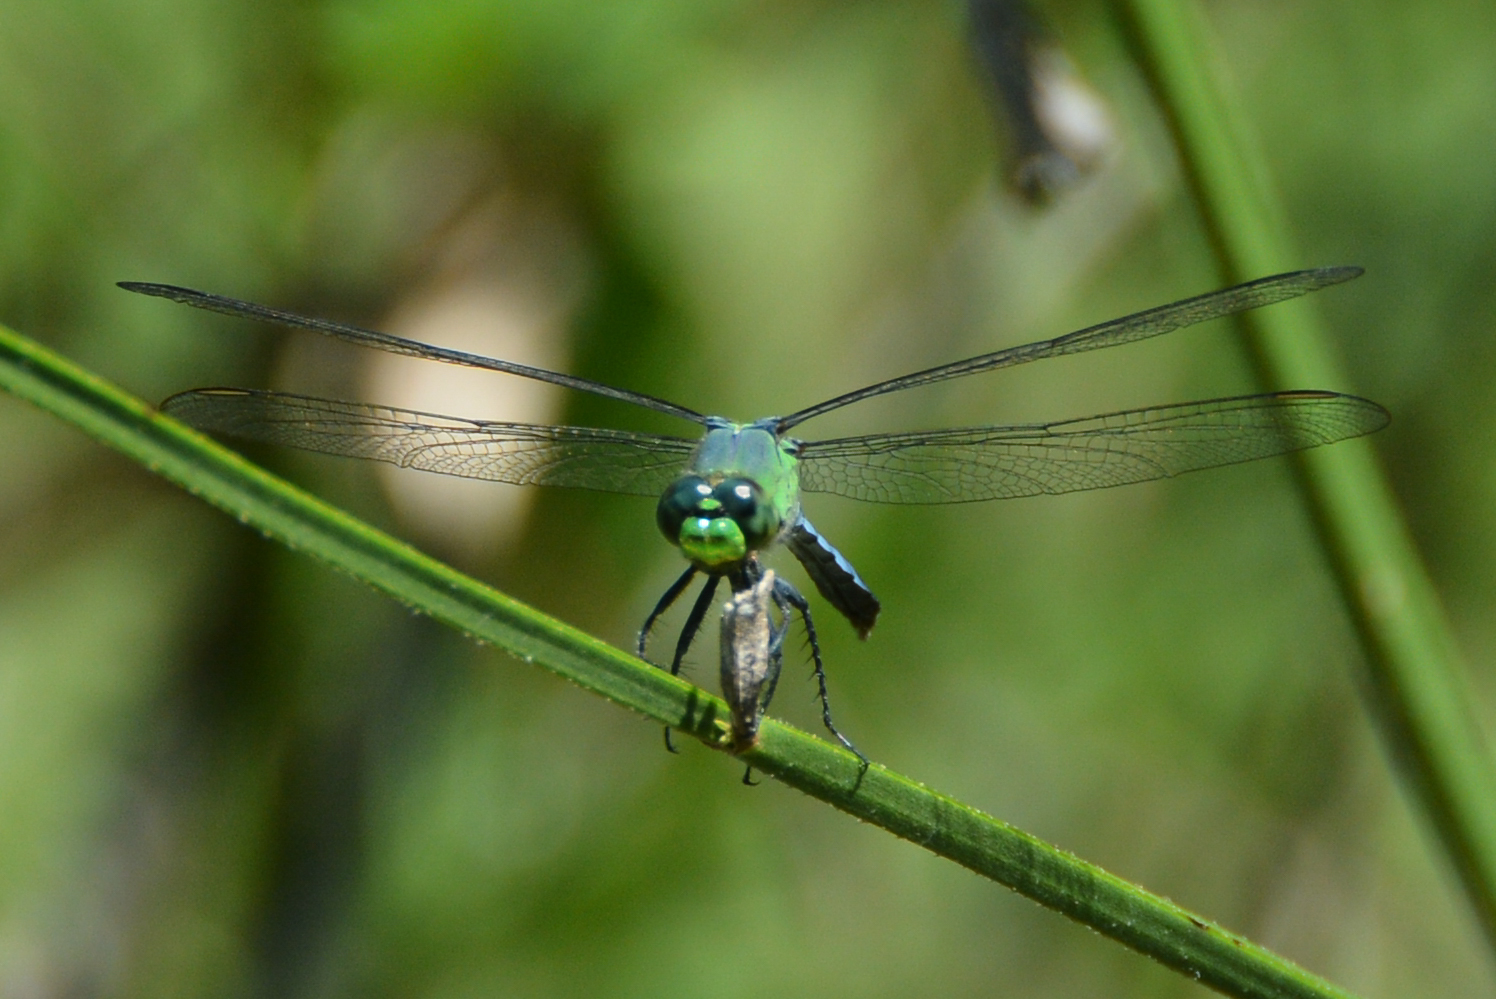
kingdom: Animalia
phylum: Arthropoda
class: Insecta
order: Odonata
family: Libellulidae
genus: Erythemis
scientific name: Erythemis simplicicollis
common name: Eastern pondhawk
